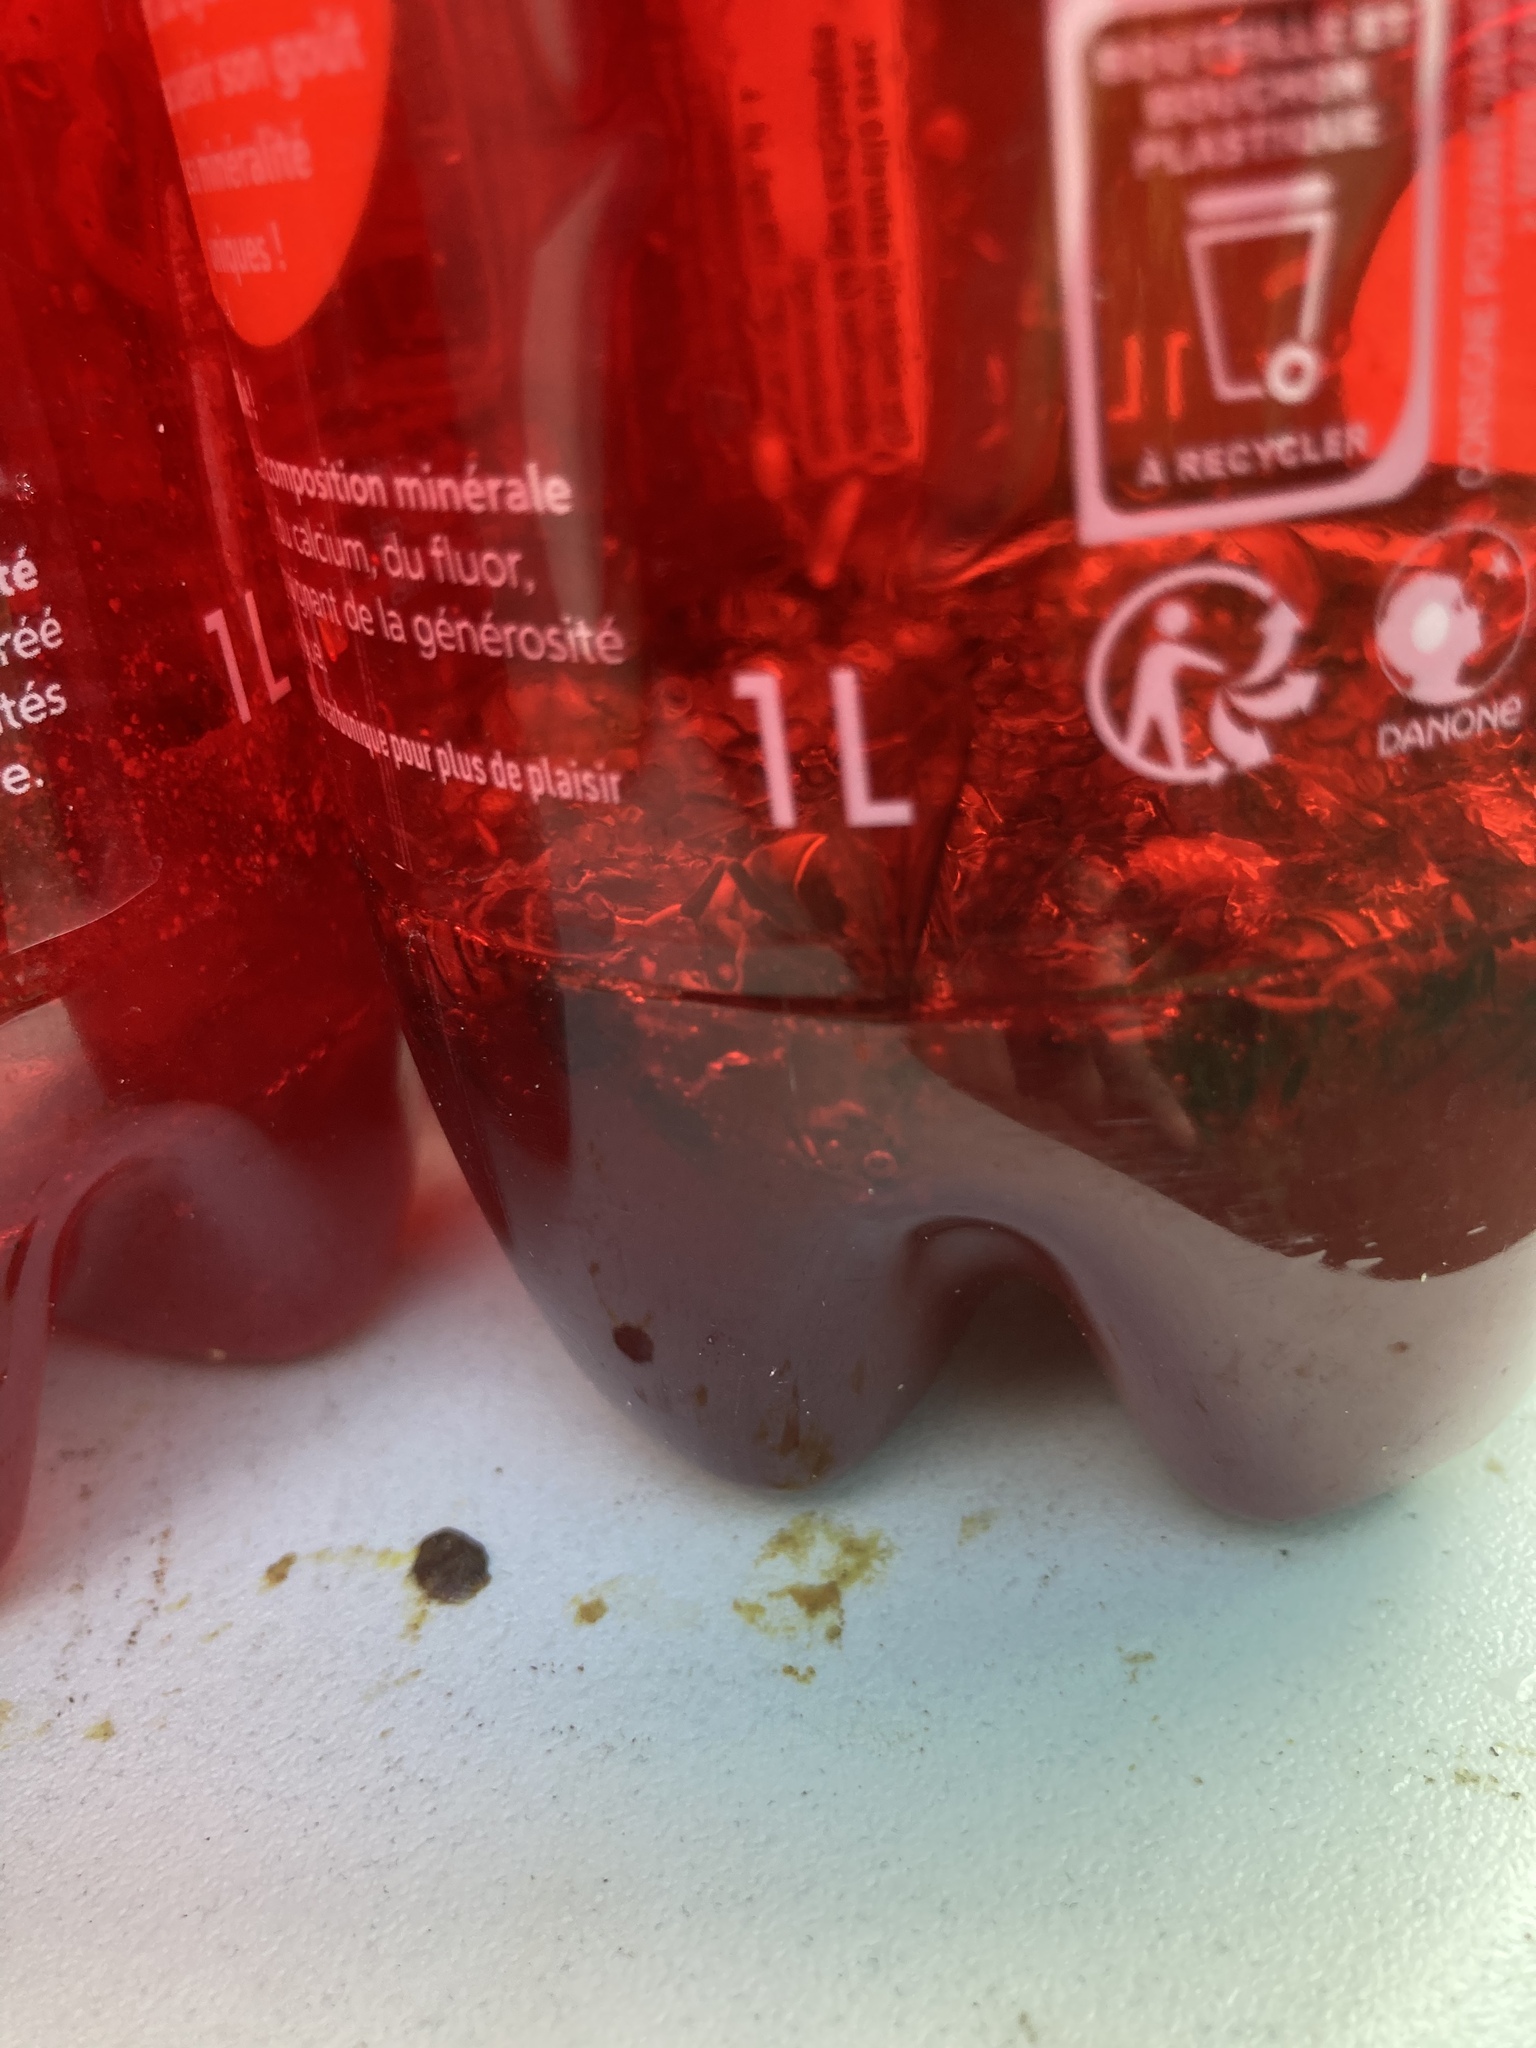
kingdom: Animalia
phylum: Arthropoda
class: Insecta
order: Hymenoptera
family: Vespidae
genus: Vespa
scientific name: Vespa velutina
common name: Asian hornet
